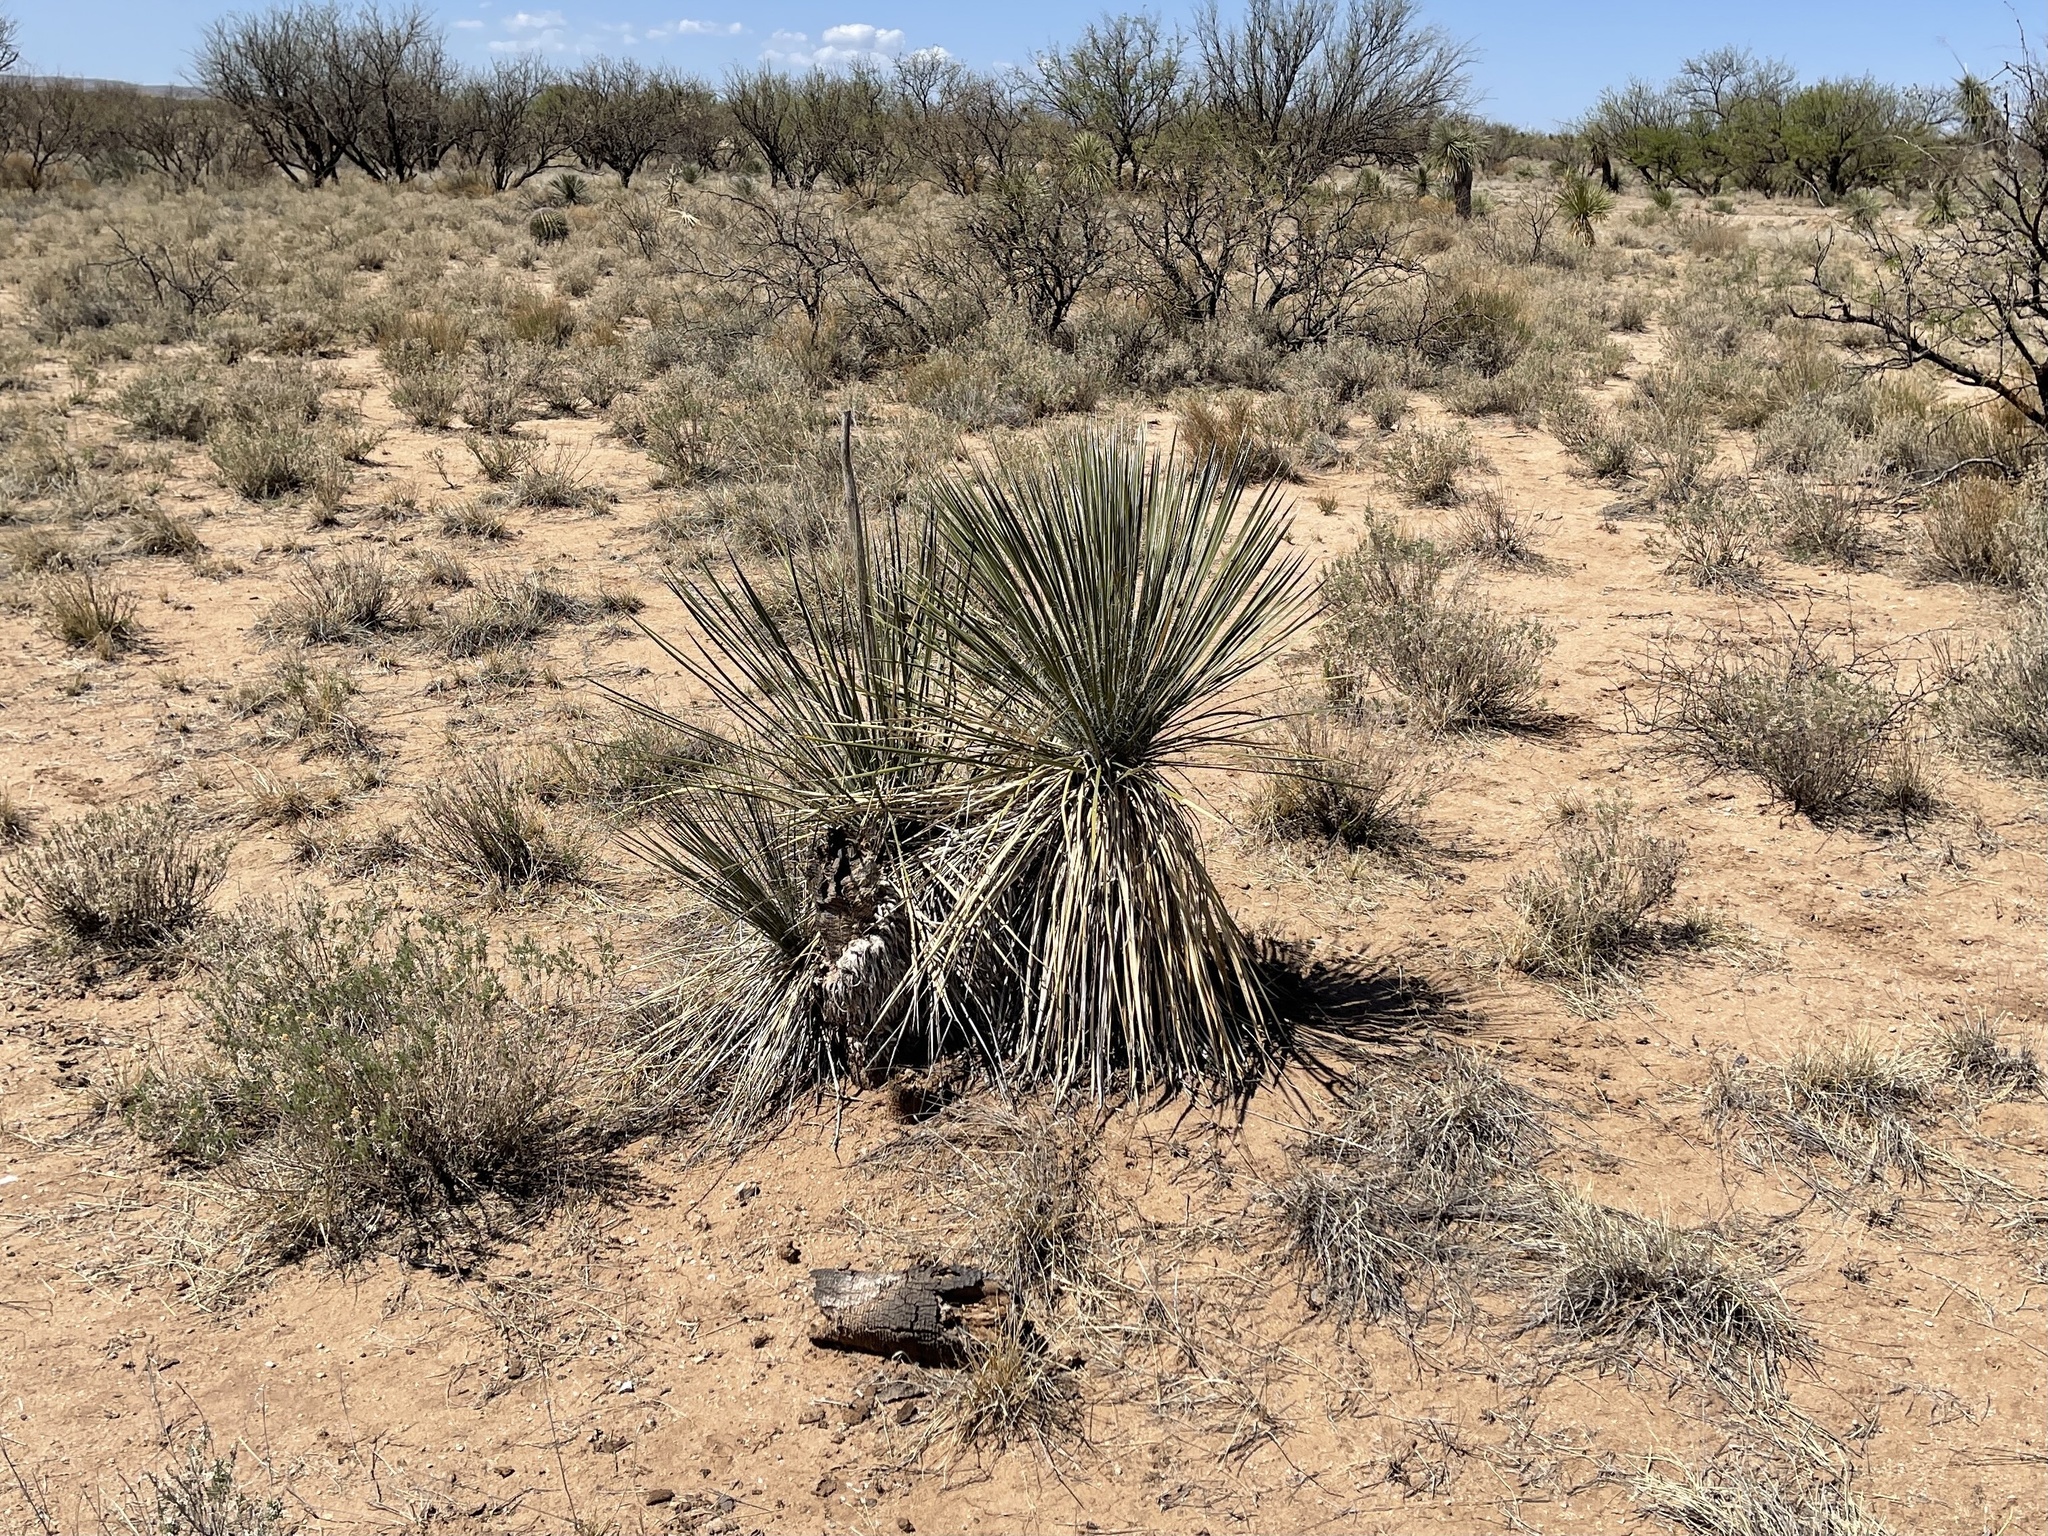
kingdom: Plantae
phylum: Tracheophyta
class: Liliopsida
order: Asparagales
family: Asparagaceae
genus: Yucca
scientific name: Yucca elata
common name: Palmella
